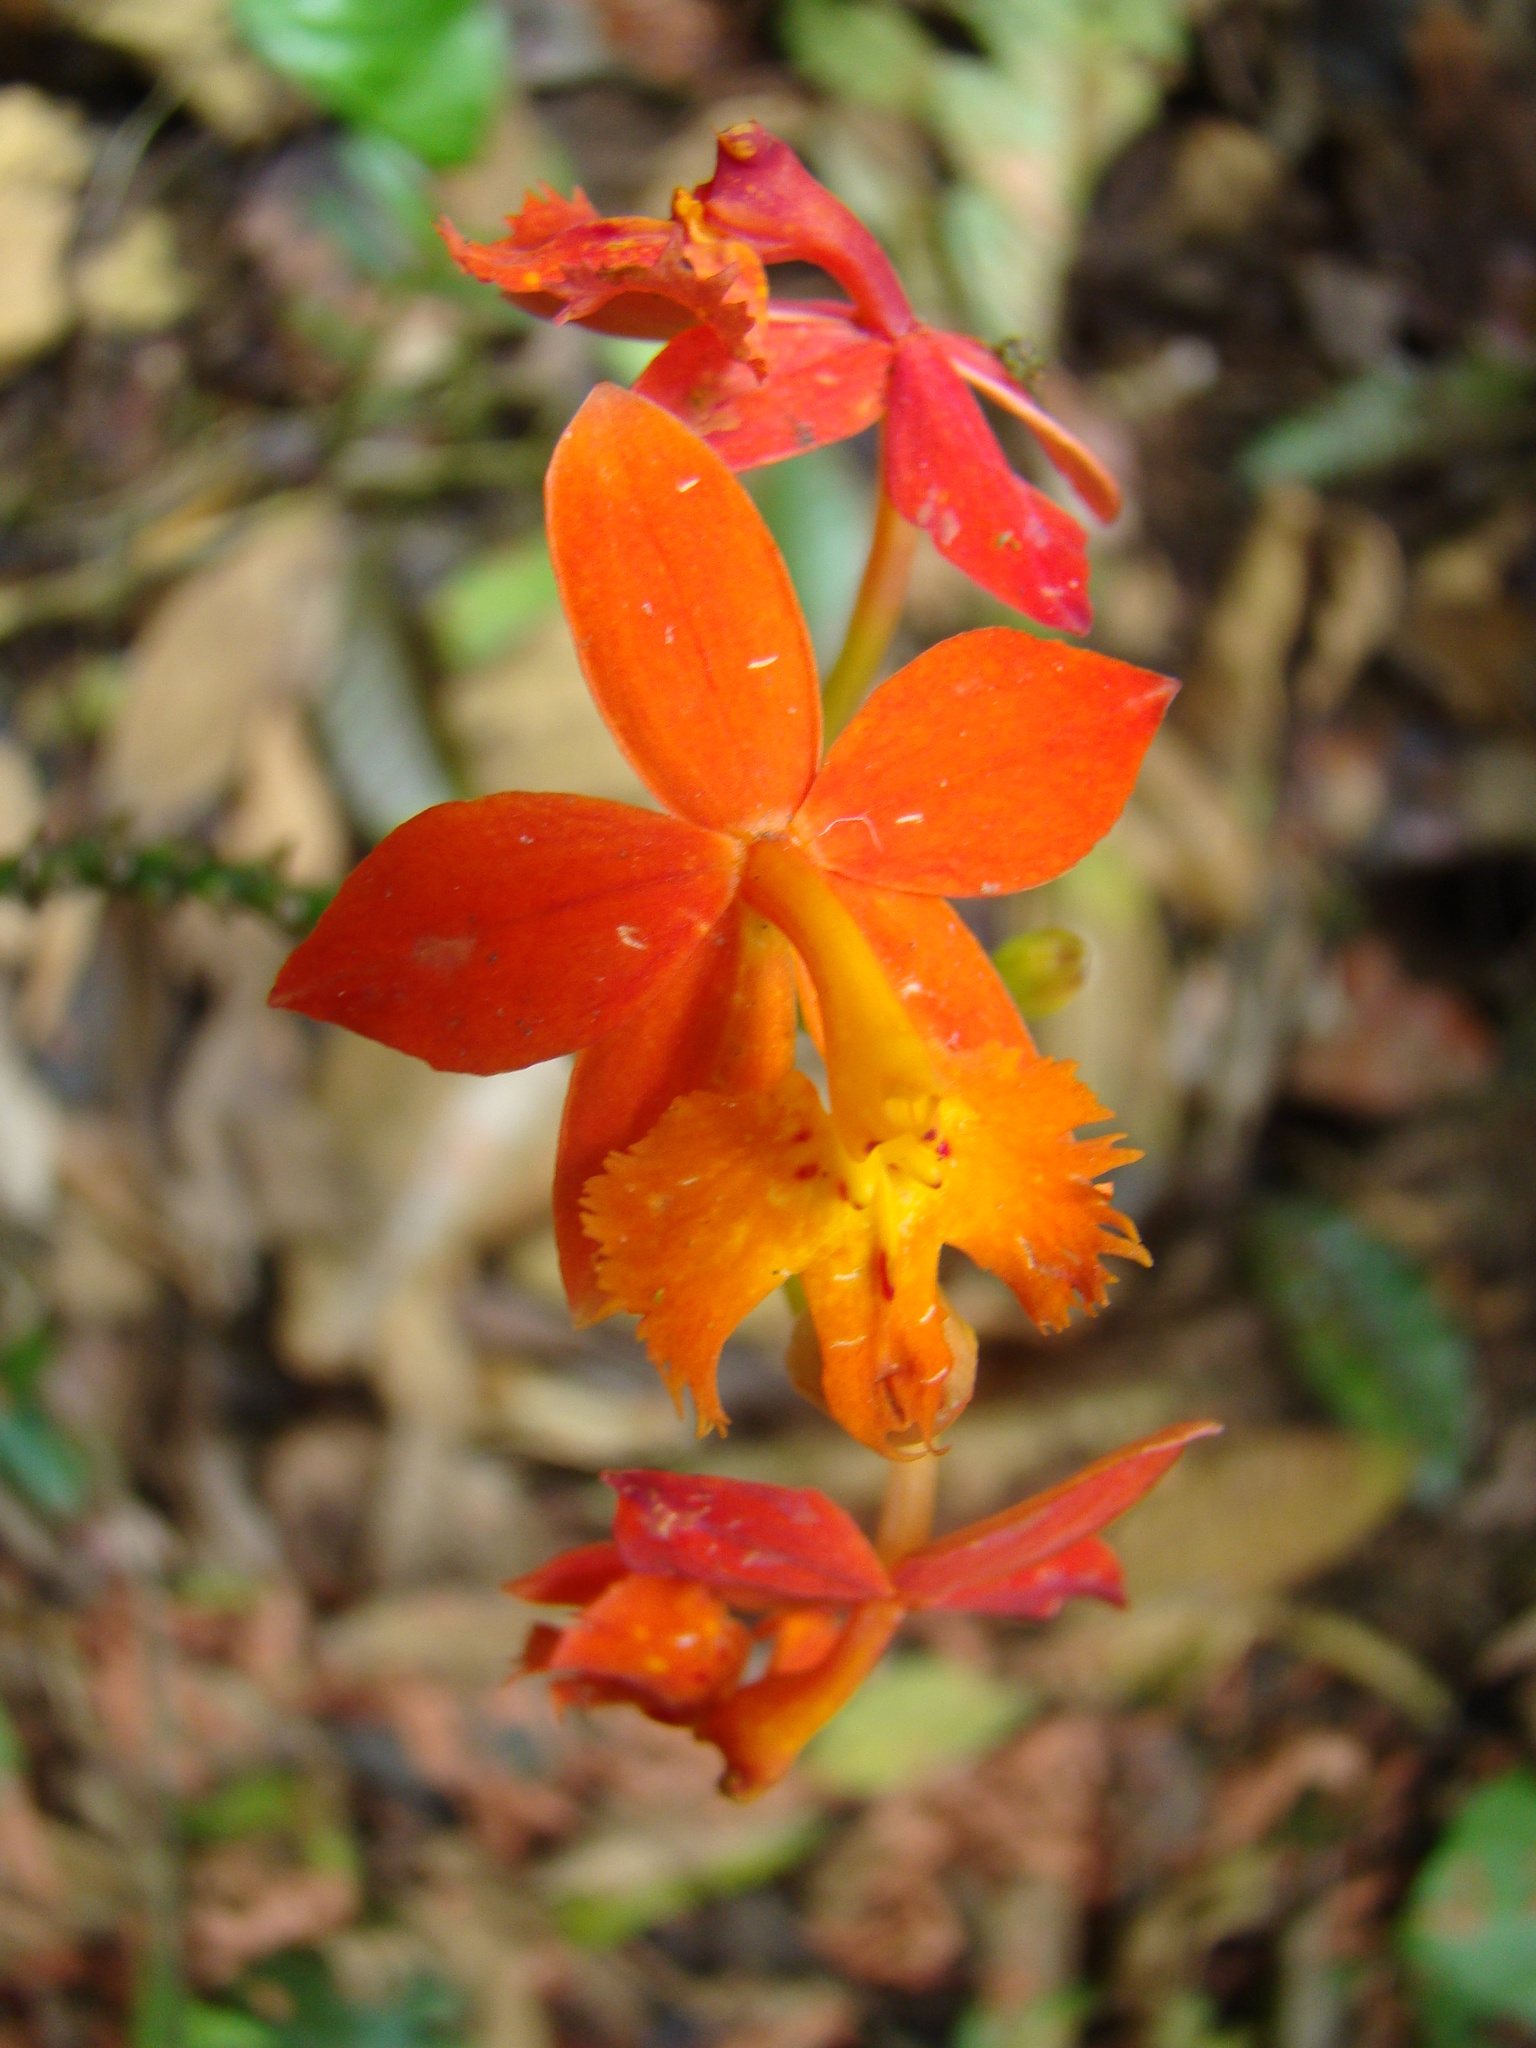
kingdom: Plantae
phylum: Tracheophyta
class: Liliopsida
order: Asparagales
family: Orchidaceae
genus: Epidendrum
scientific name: Epidendrum radicans
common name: Fire star orchid
